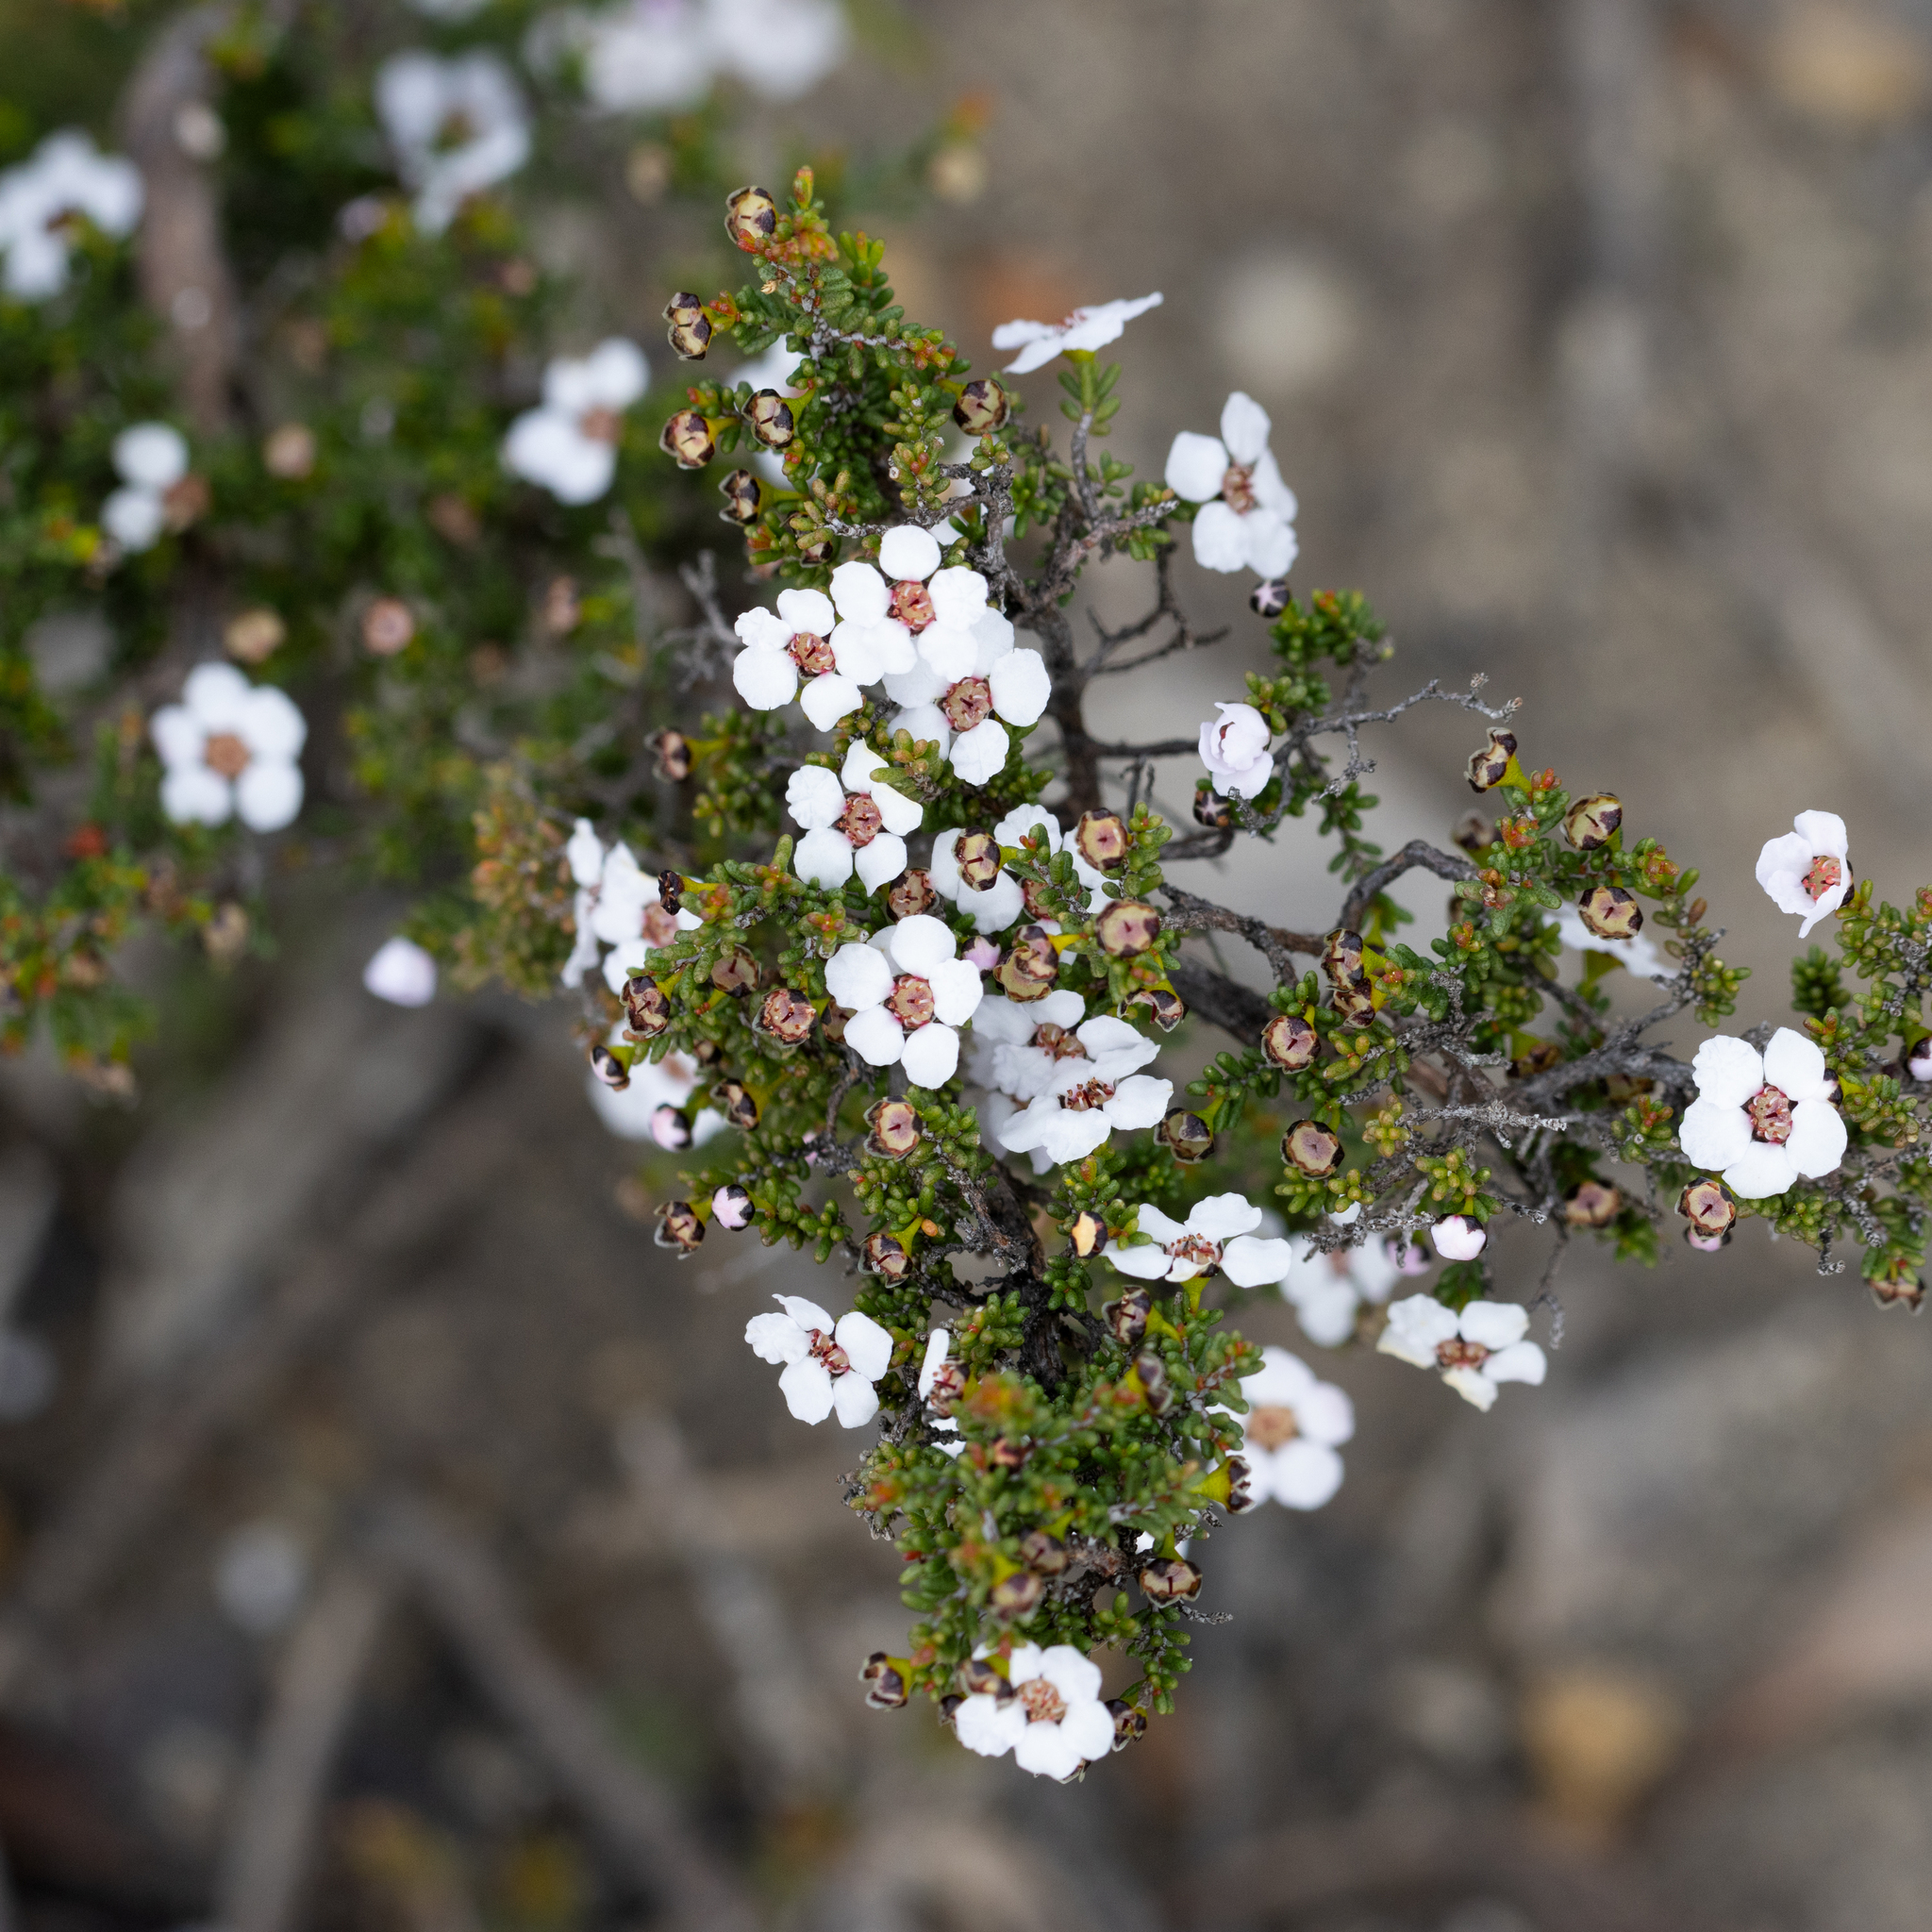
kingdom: Plantae
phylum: Tracheophyta
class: Magnoliopsida
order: Myrtales
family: Myrtaceae
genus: Rinzia
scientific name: Rinzia orientalis
